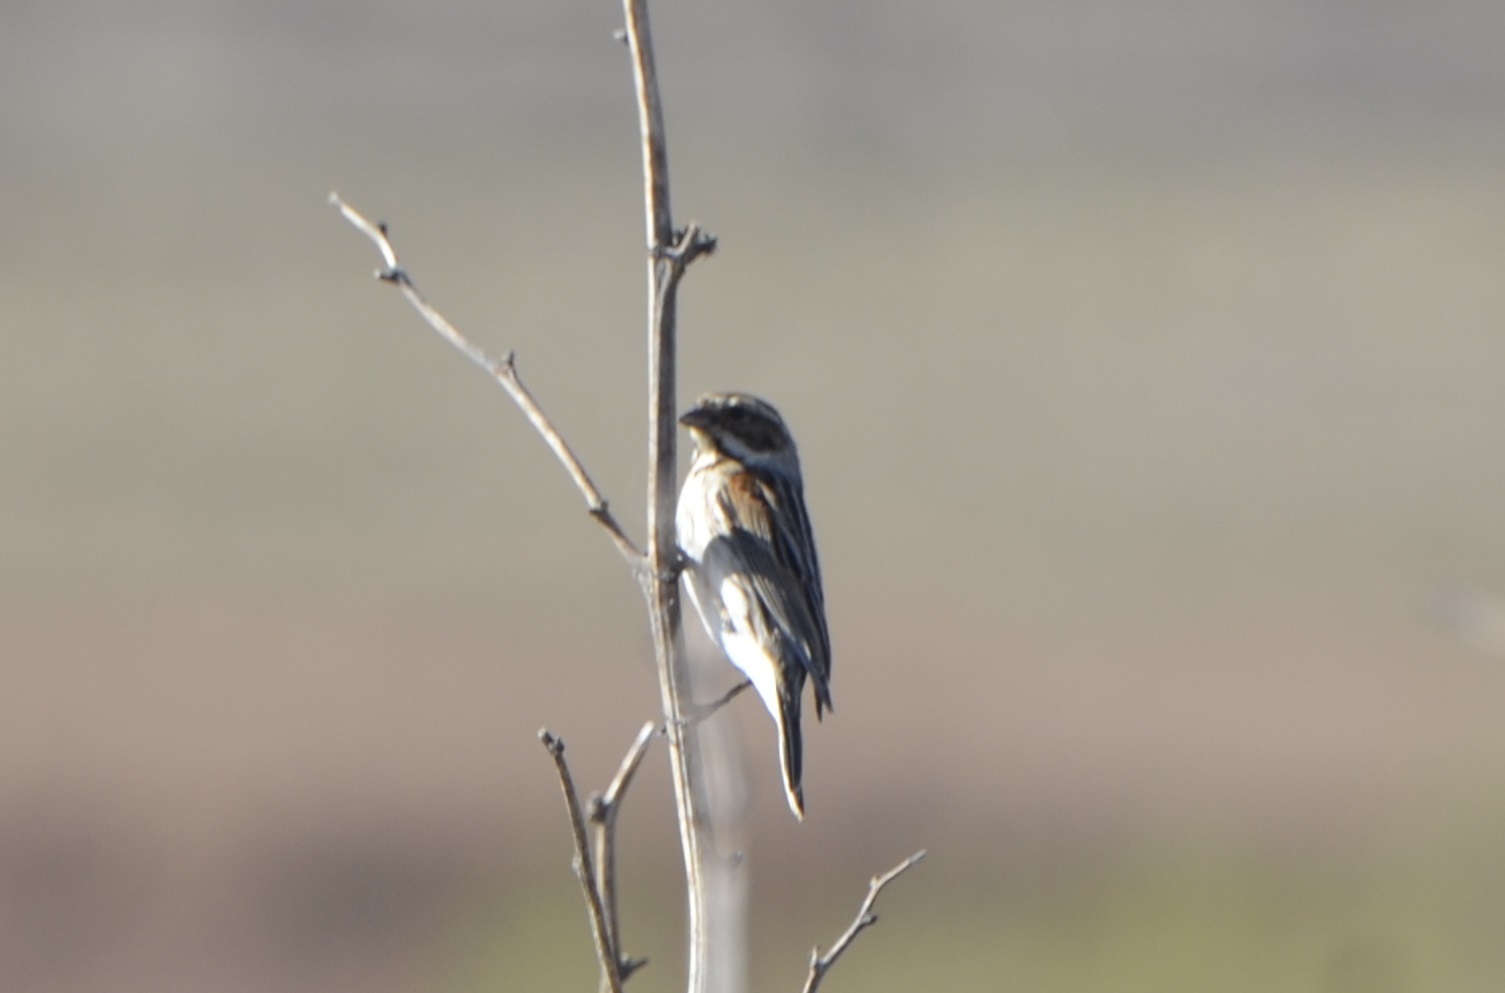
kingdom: Animalia
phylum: Chordata
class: Aves
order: Passeriformes
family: Emberizidae
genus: Emberiza
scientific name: Emberiza schoeniclus
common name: Reed bunting
